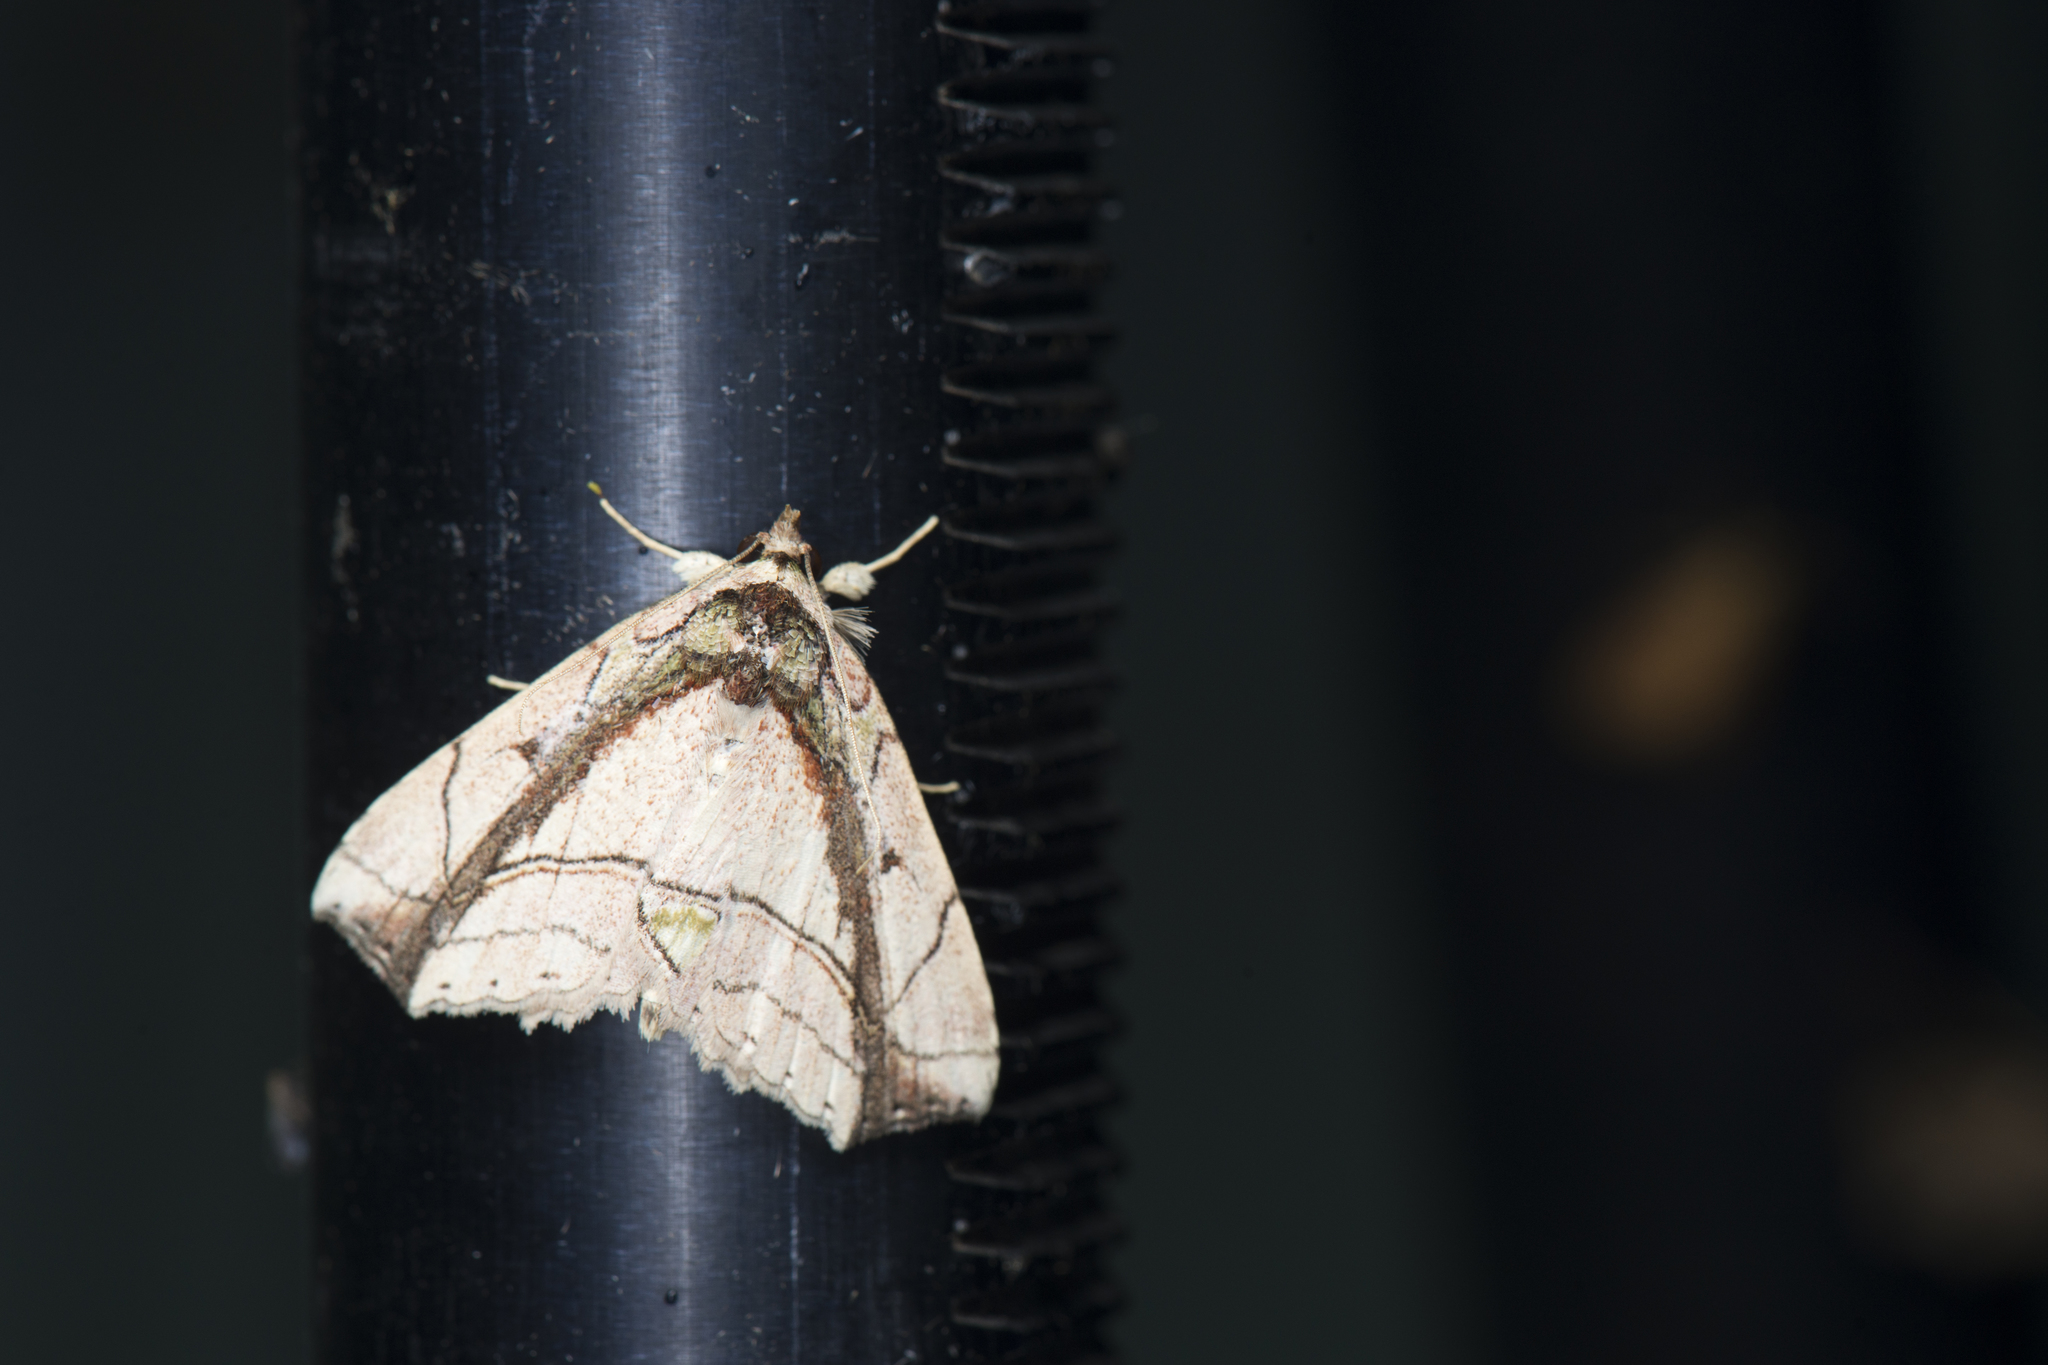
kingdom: Animalia
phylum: Arthropoda
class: Insecta
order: Lepidoptera
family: Erebidae
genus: Tamba
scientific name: Tamba lala
